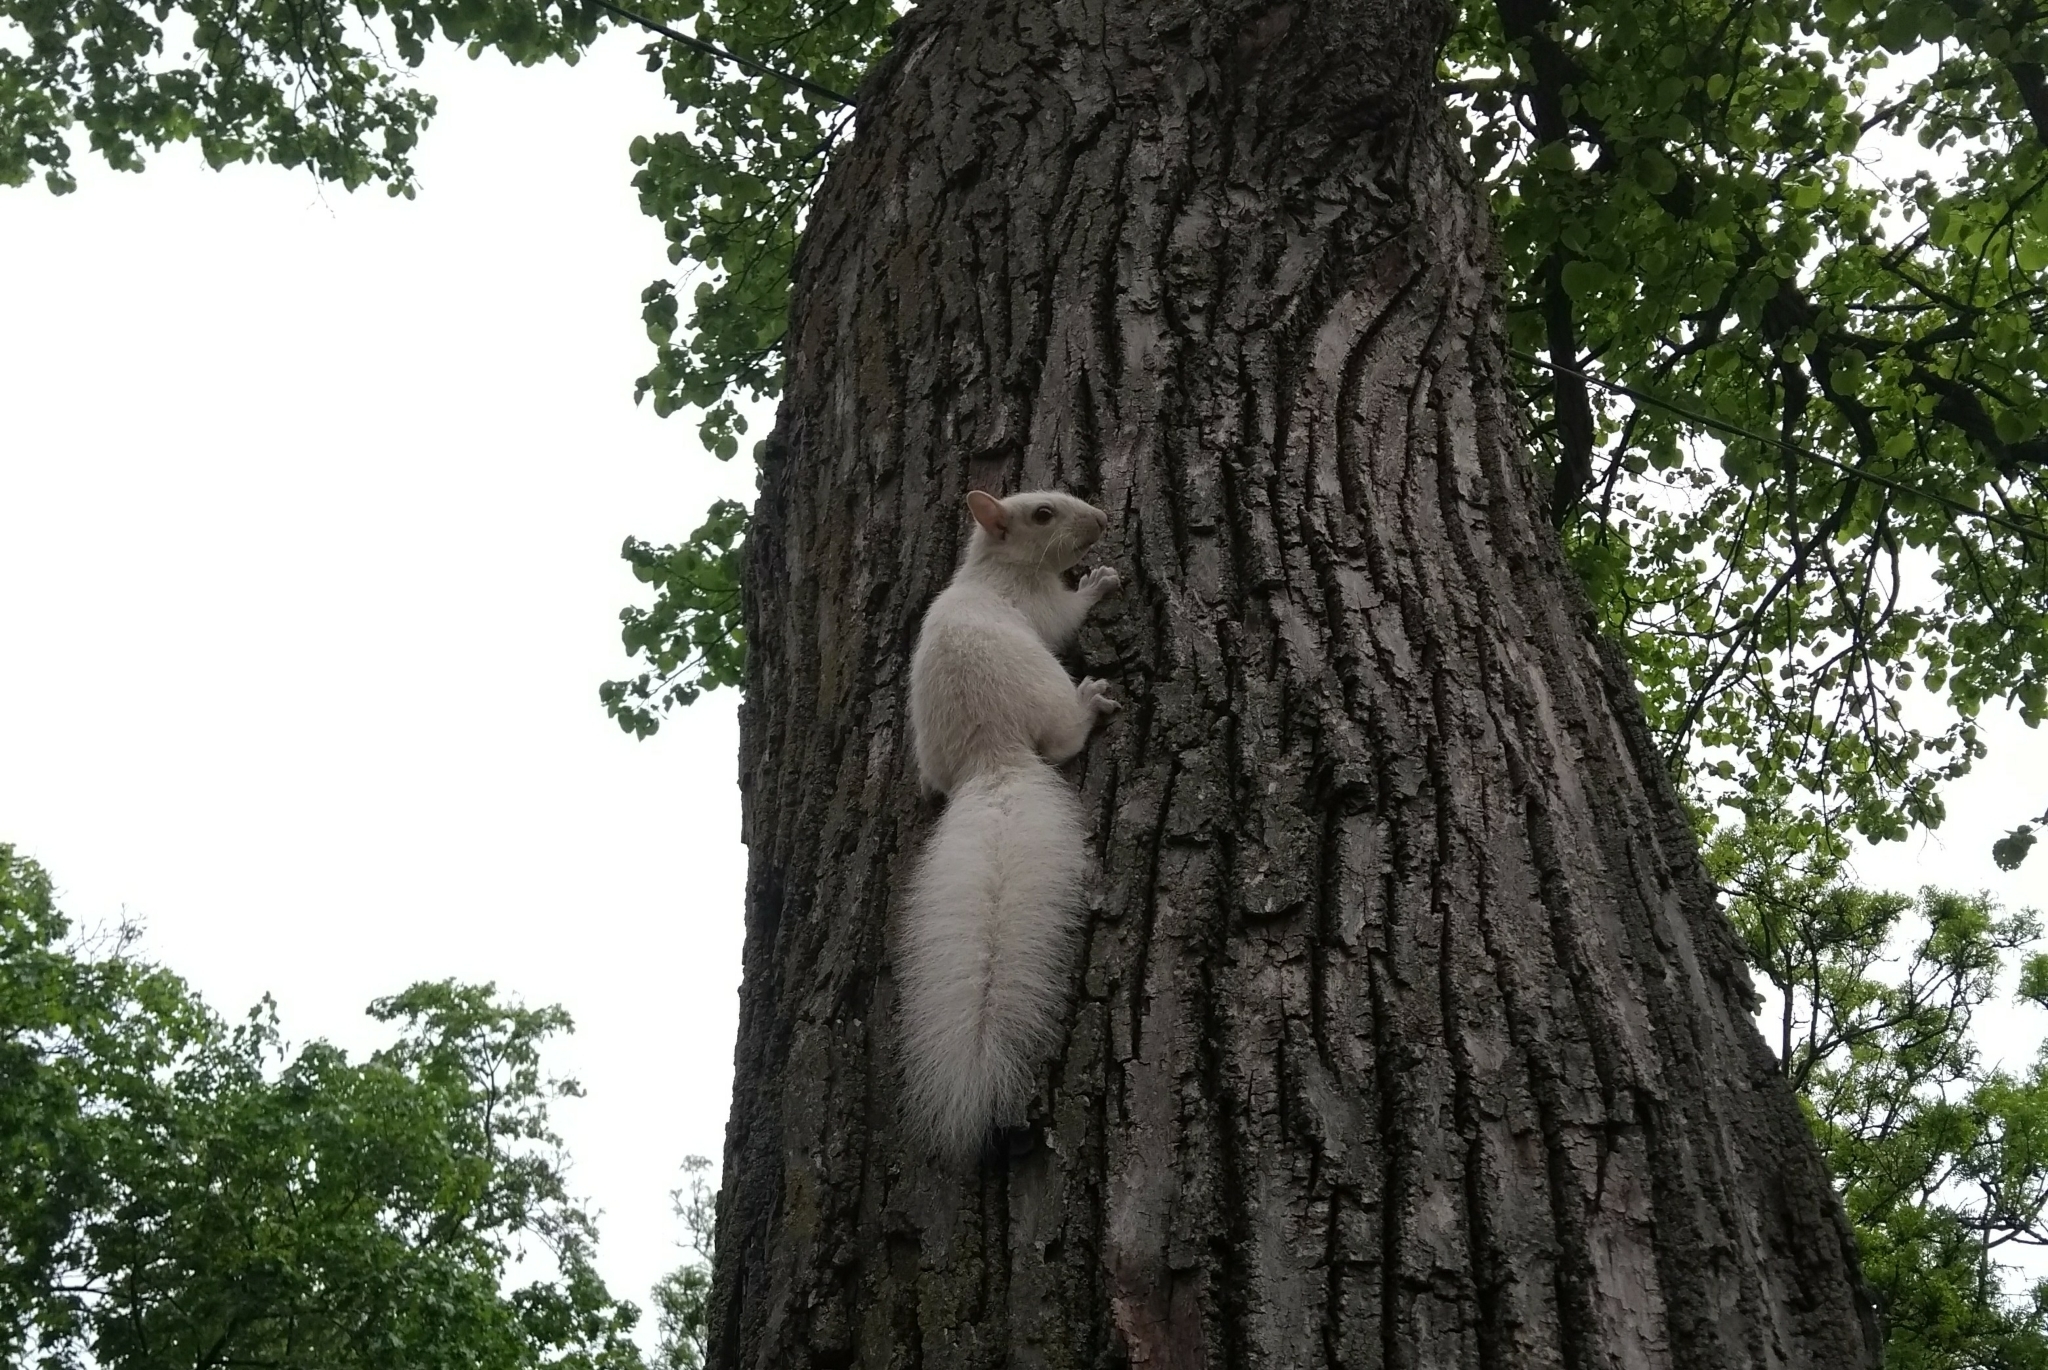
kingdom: Animalia
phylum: Chordata
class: Mammalia
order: Rodentia
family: Sciuridae
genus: Sciurus
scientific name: Sciurus carolinensis
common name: Eastern gray squirrel
